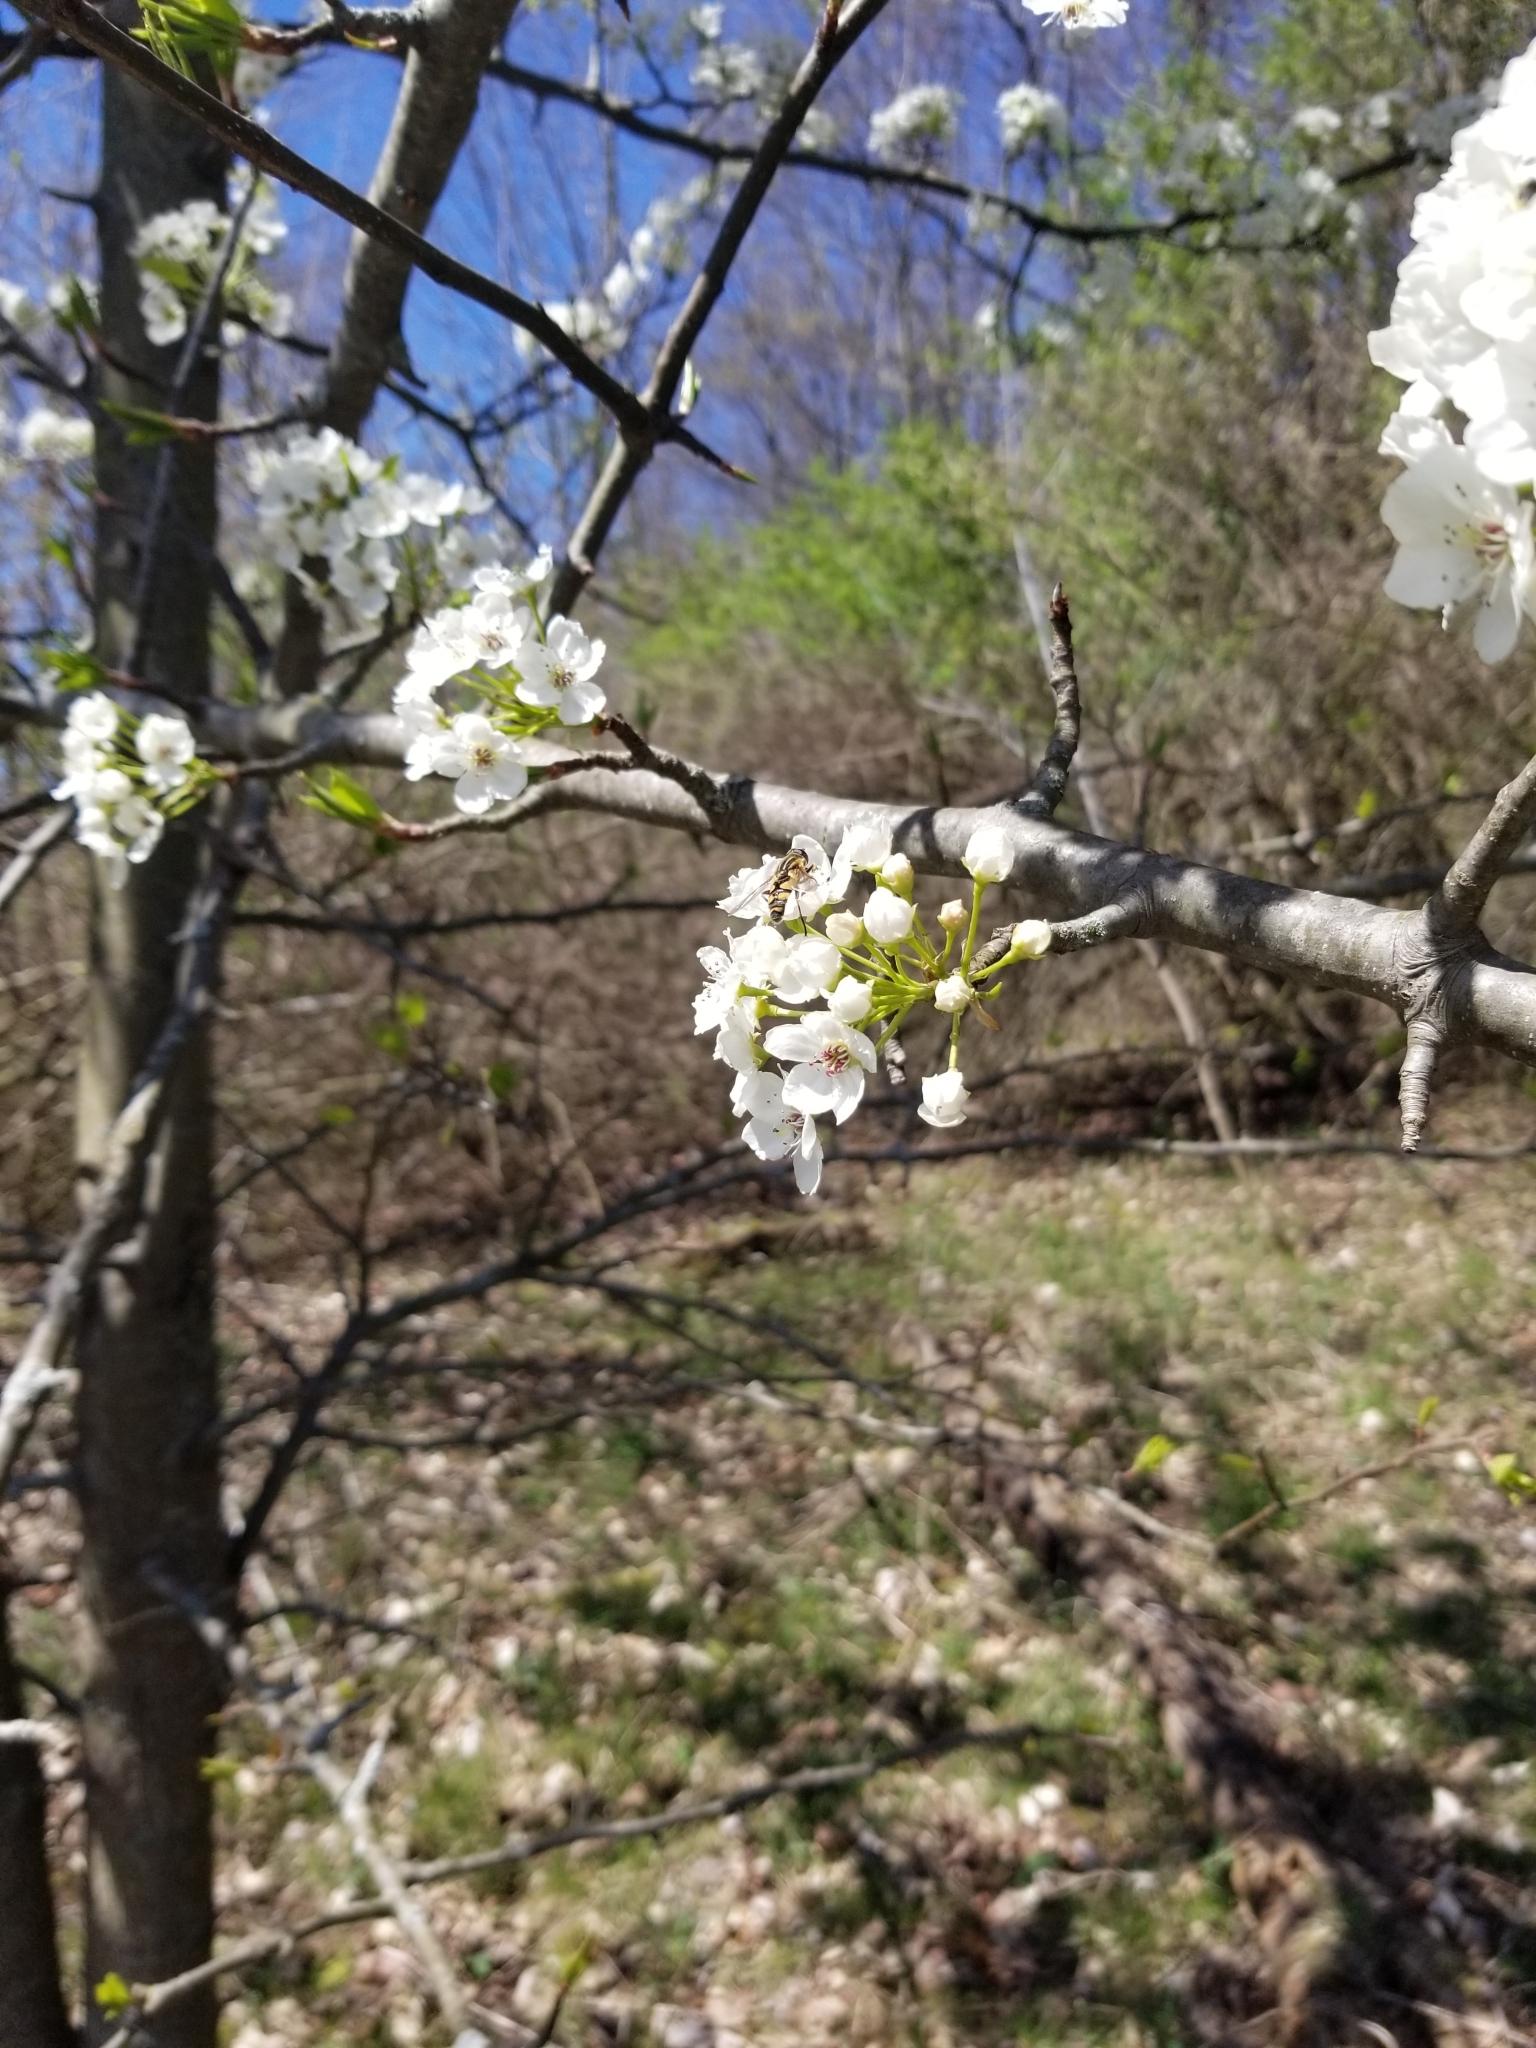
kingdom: Animalia
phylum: Arthropoda
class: Insecta
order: Diptera
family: Syrphidae
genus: Helophilus
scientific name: Helophilus fasciatus
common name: Narrow-headed marsh fly
